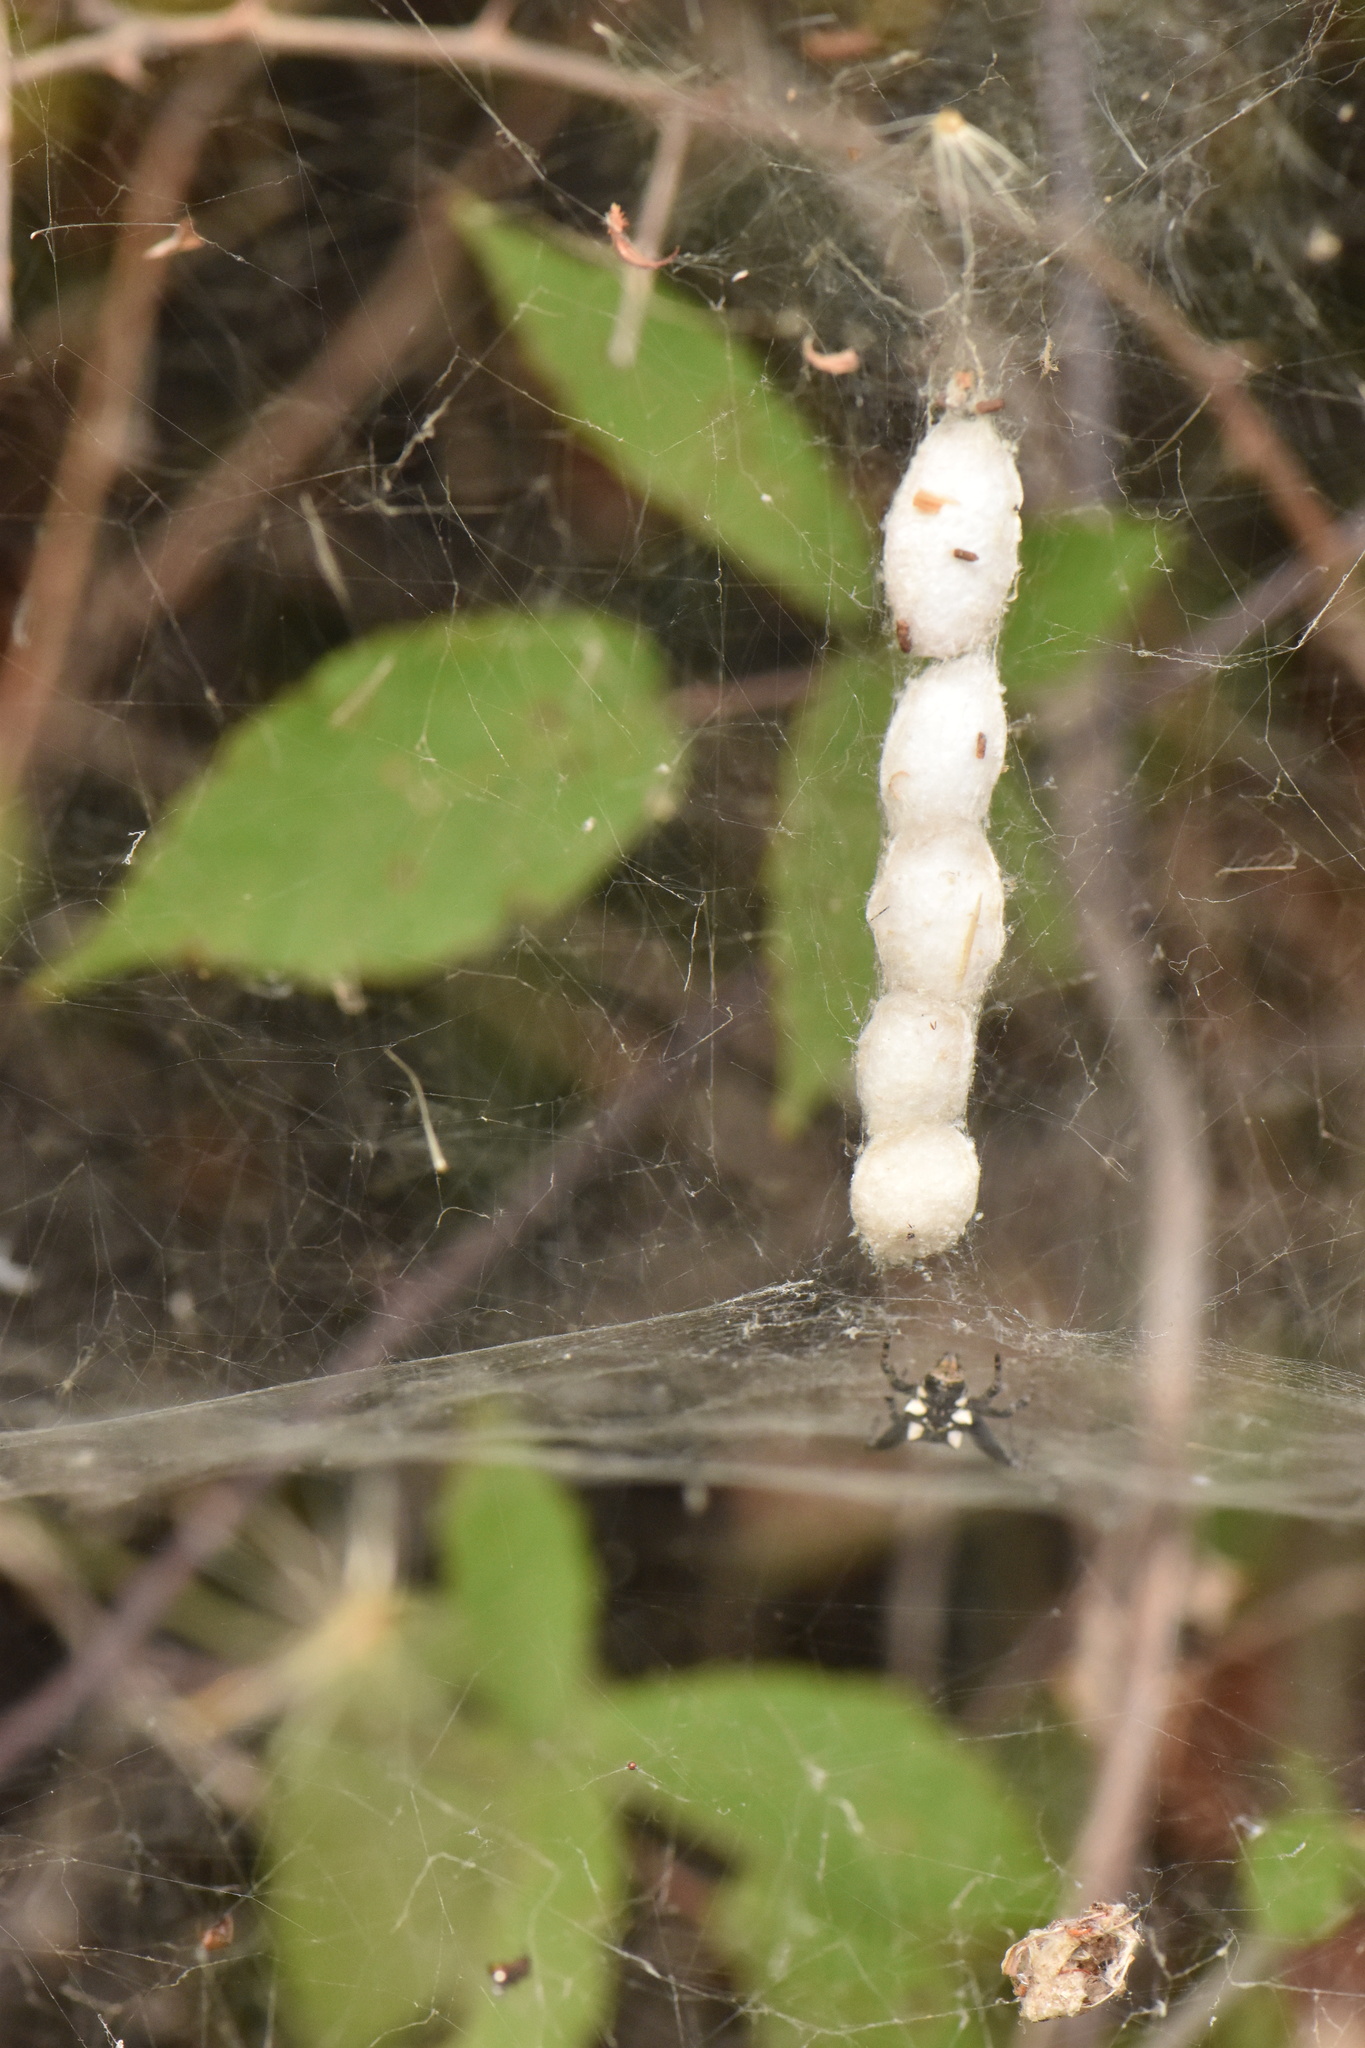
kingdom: Animalia
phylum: Arthropoda
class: Arachnida
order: Araneae
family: Araneidae
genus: Cyrtophora
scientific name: Cyrtophora citricola
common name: Orb weavers
